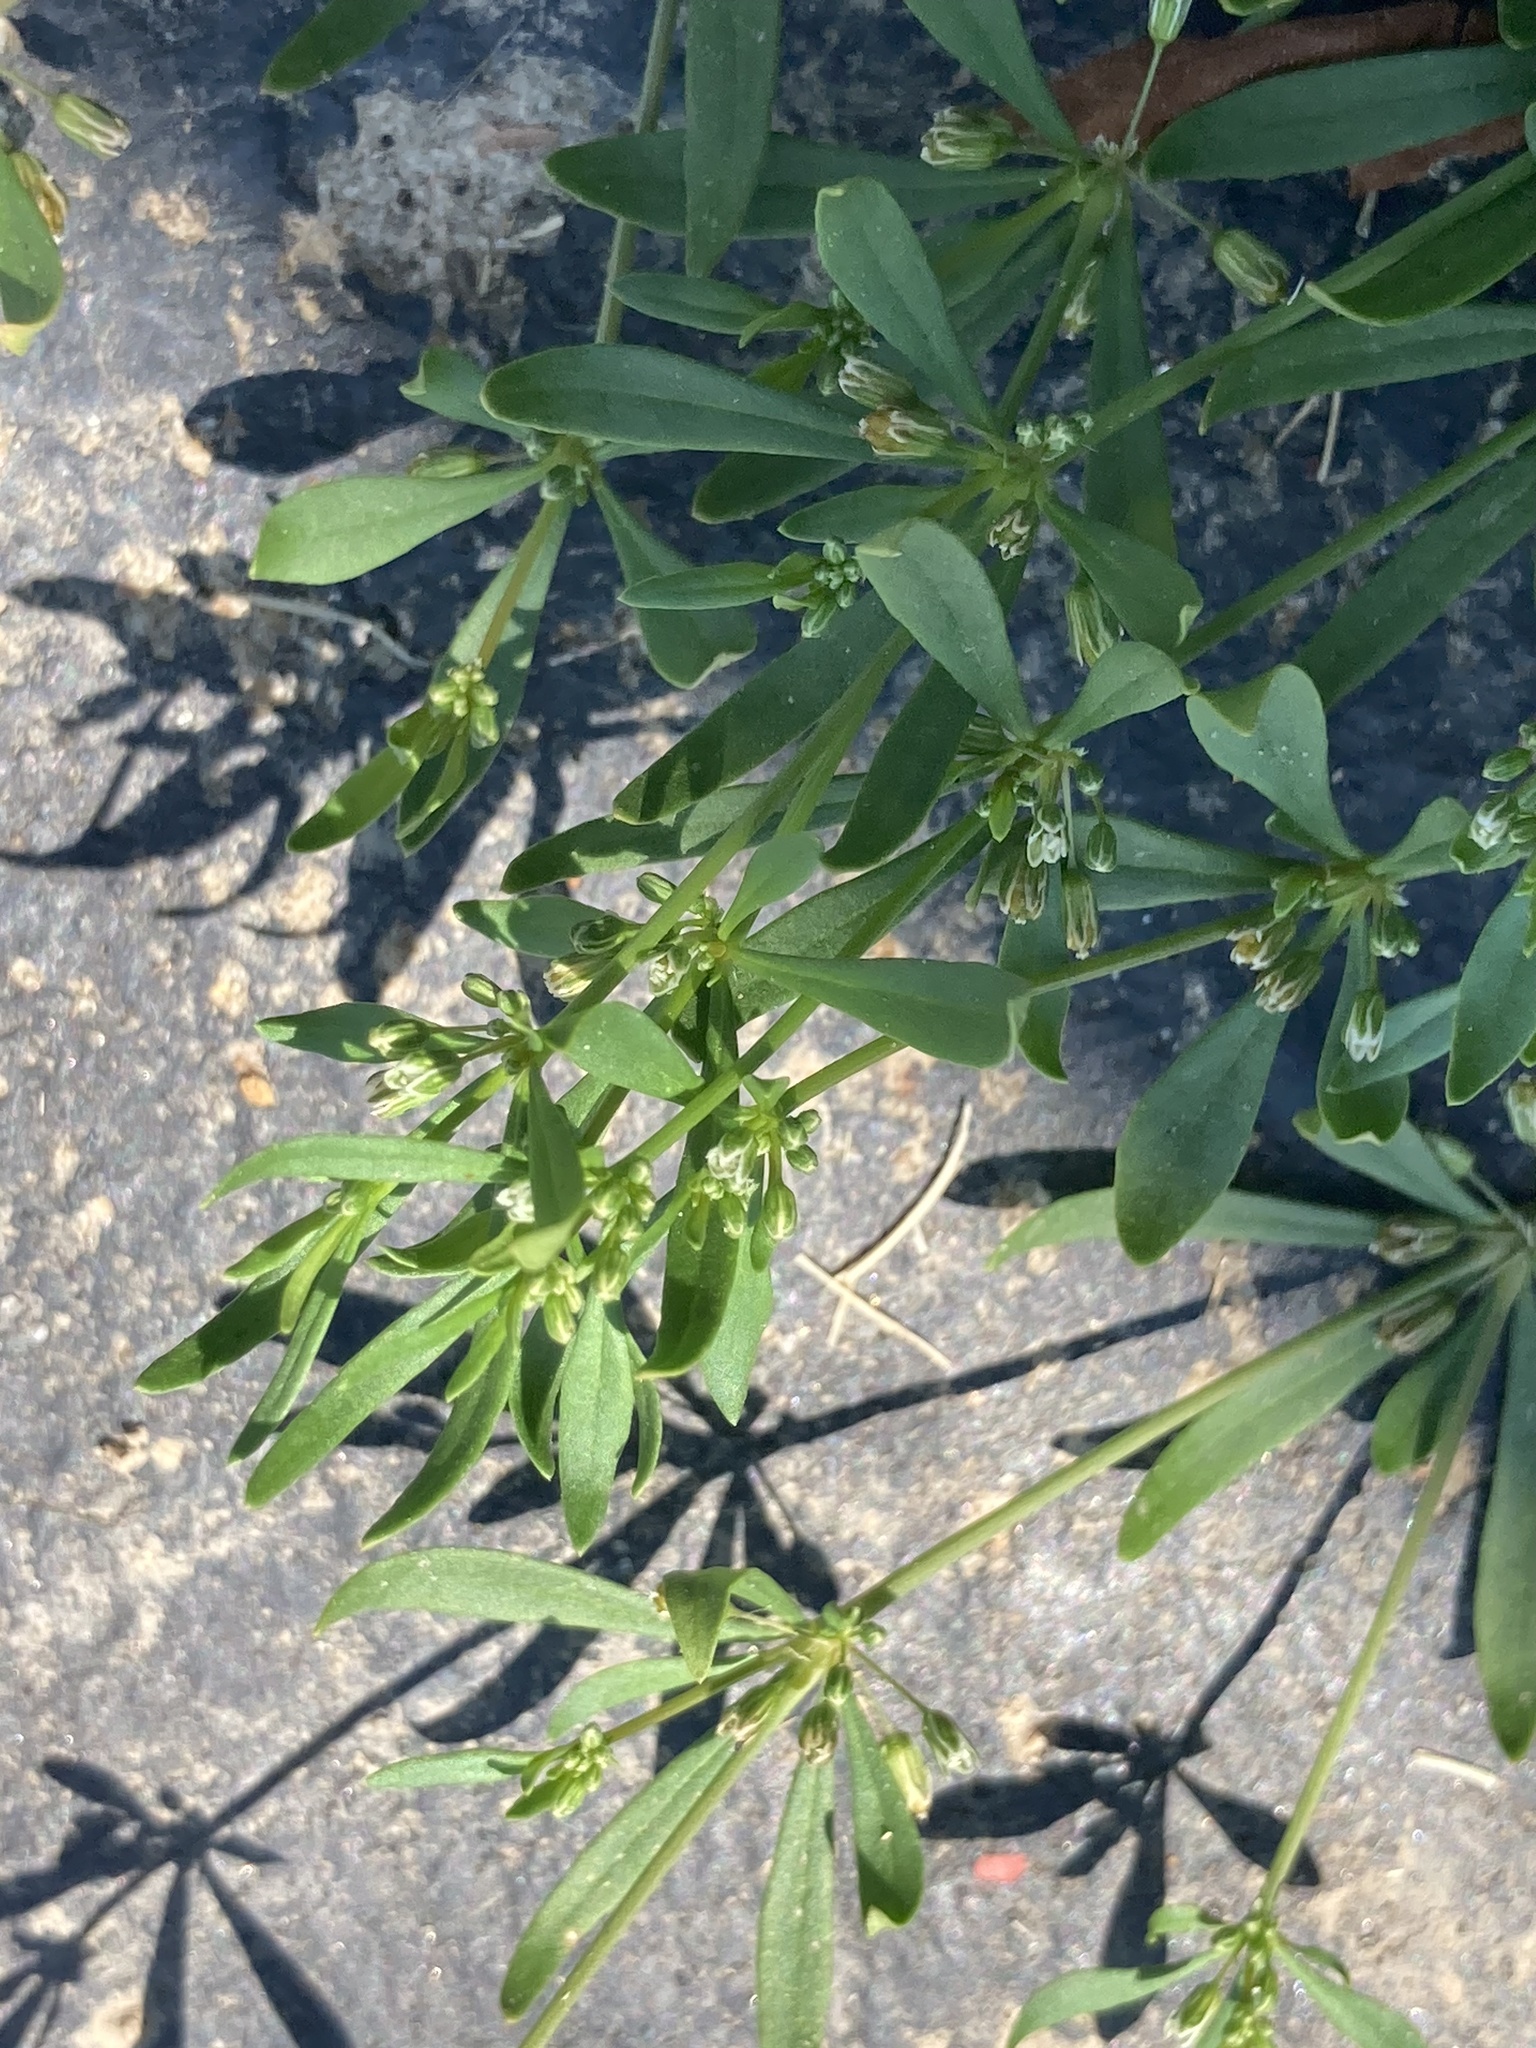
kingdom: Plantae
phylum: Tracheophyta
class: Magnoliopsida
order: Caryophyllales
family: Molluginaceae
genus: Mollugo
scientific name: Mollugo verticillata
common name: Green carpetweed
